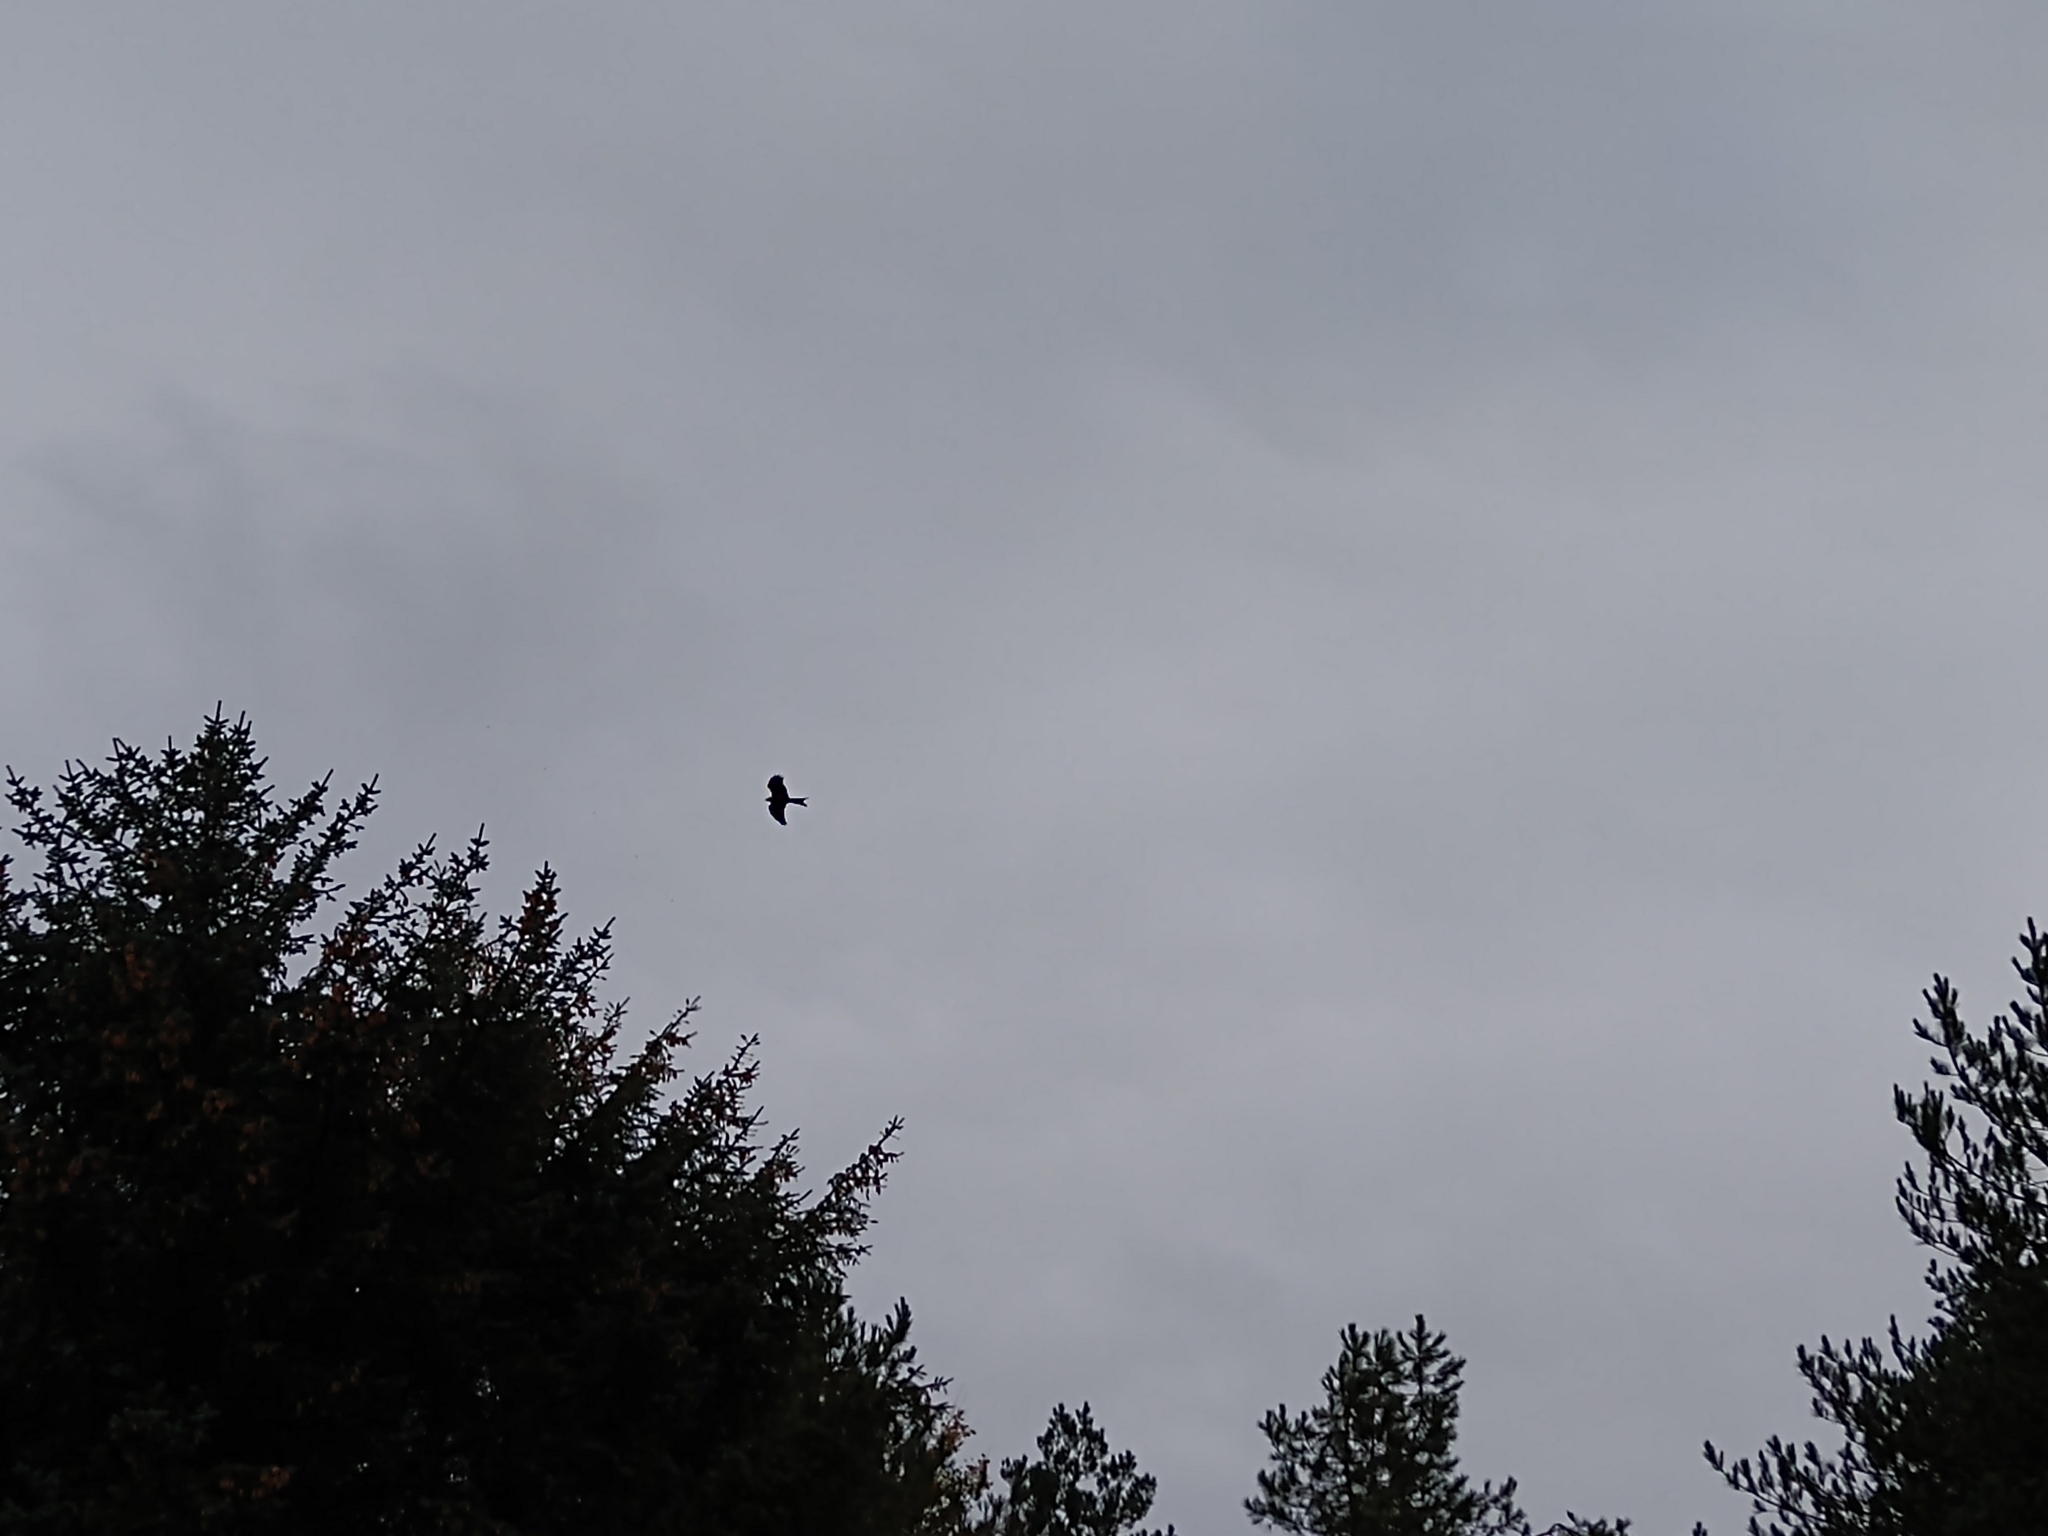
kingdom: Animalia
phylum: Chordata
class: Aves
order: Accipitriformes
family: Accipitridae
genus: Milvus
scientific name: Milvus milvus
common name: Red kite
